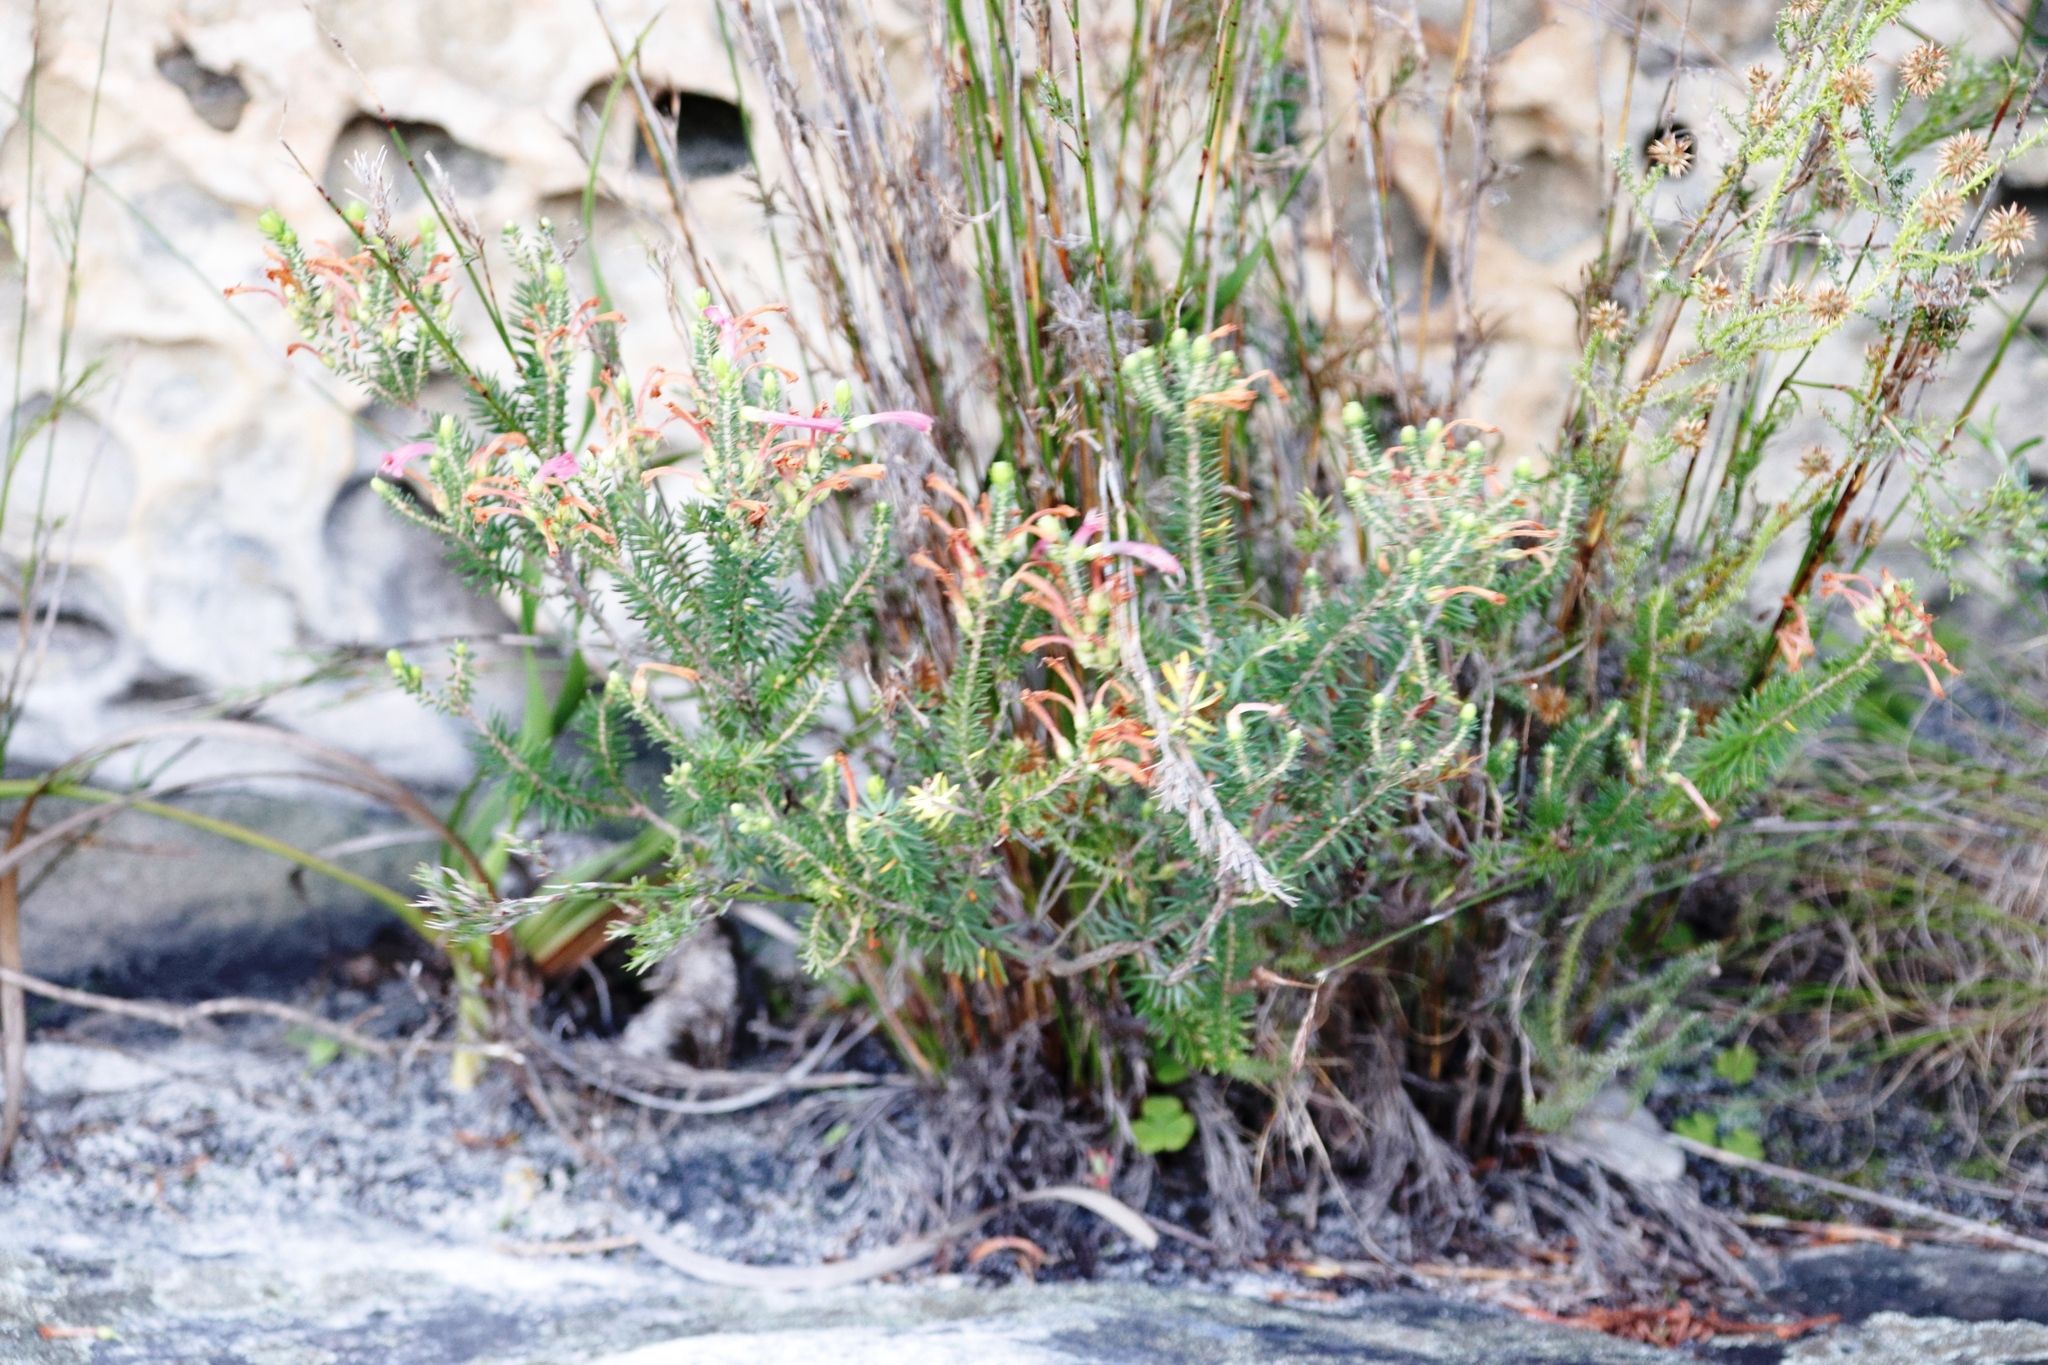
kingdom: Plantae
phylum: Tracheophyta
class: Magnoliopsida
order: Ericales
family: Ericaceae
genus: Erica
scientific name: Erica abietina
